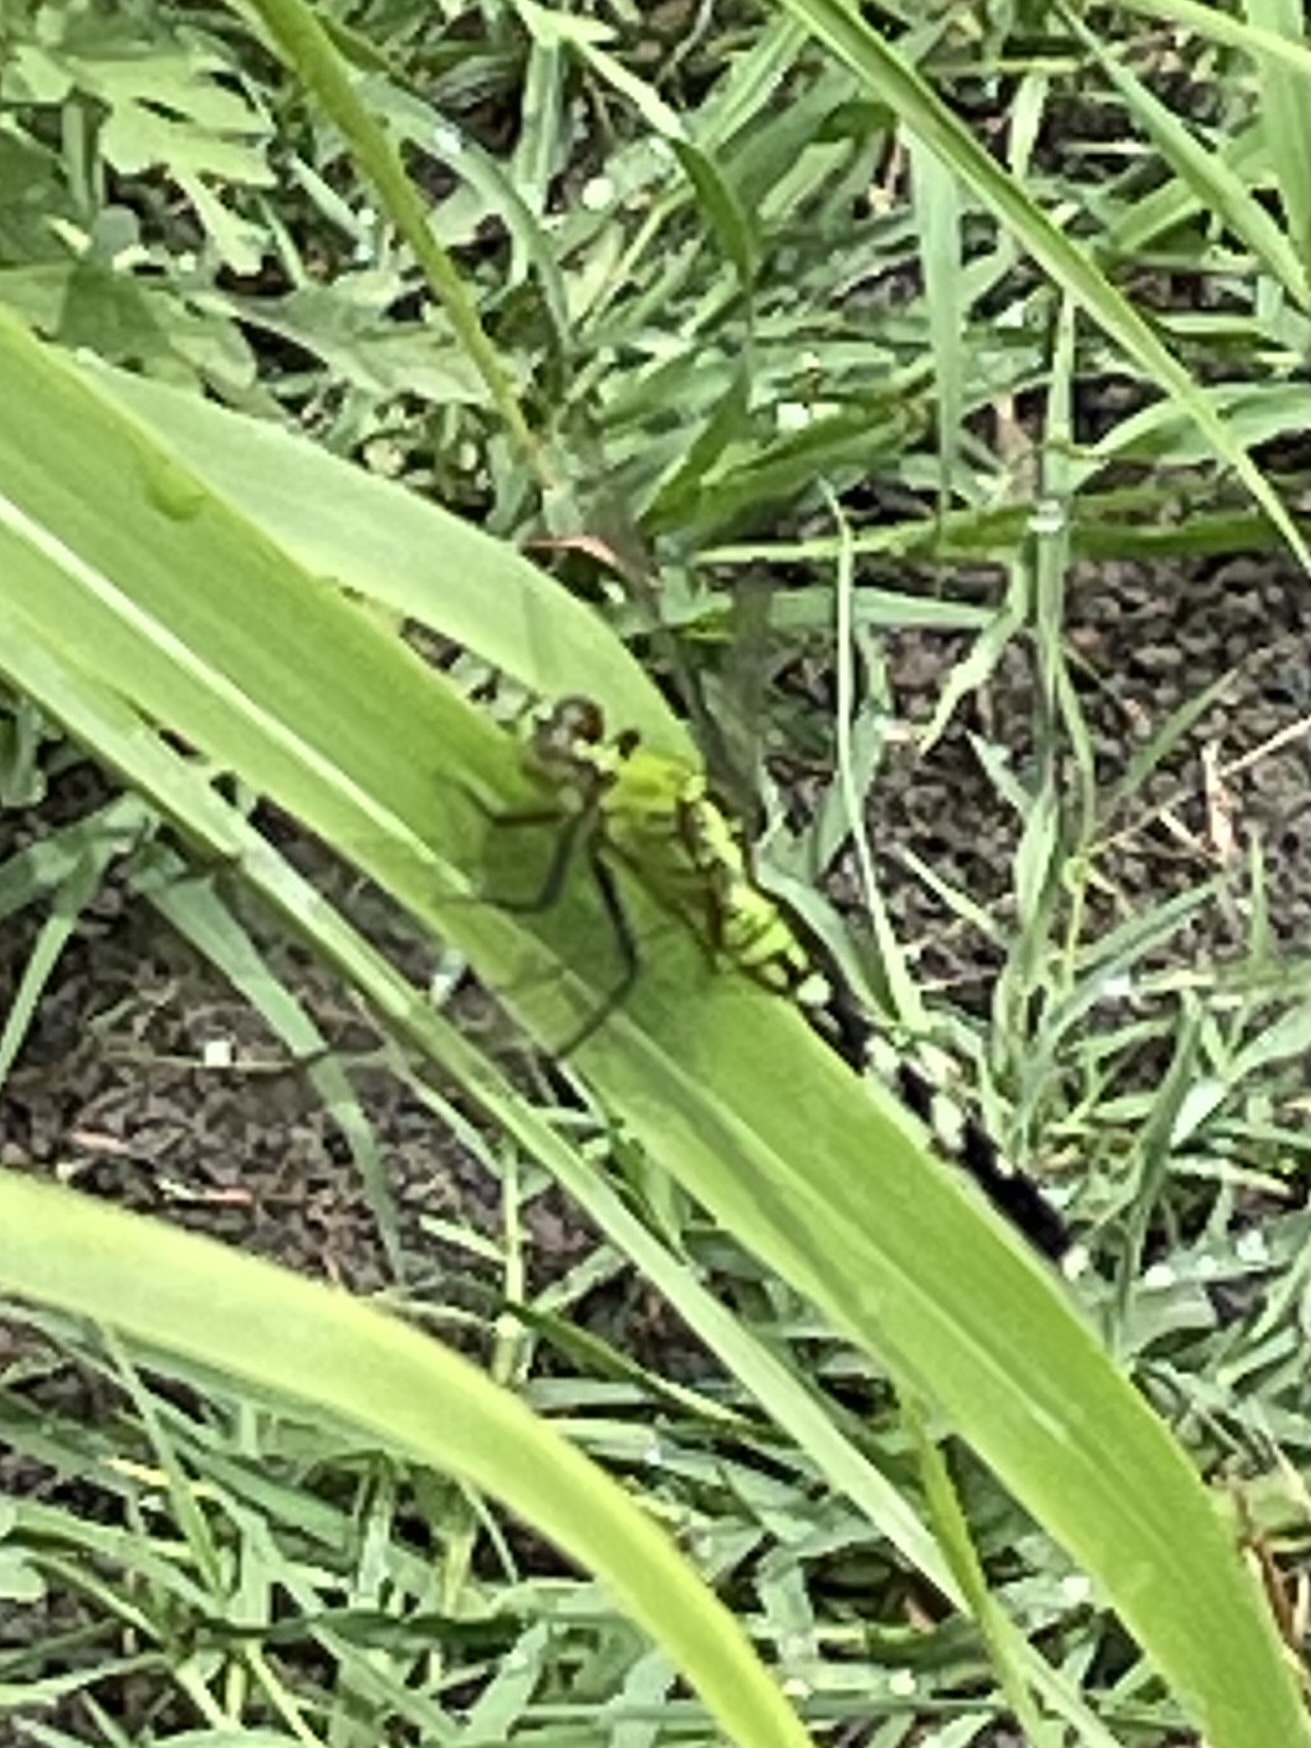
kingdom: Animalia
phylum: Arthropoda
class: Insecta
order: Odonata
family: Libellulidae
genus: Erythemis
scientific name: Erythemis simplicicollis
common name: Eastern pondhawk
